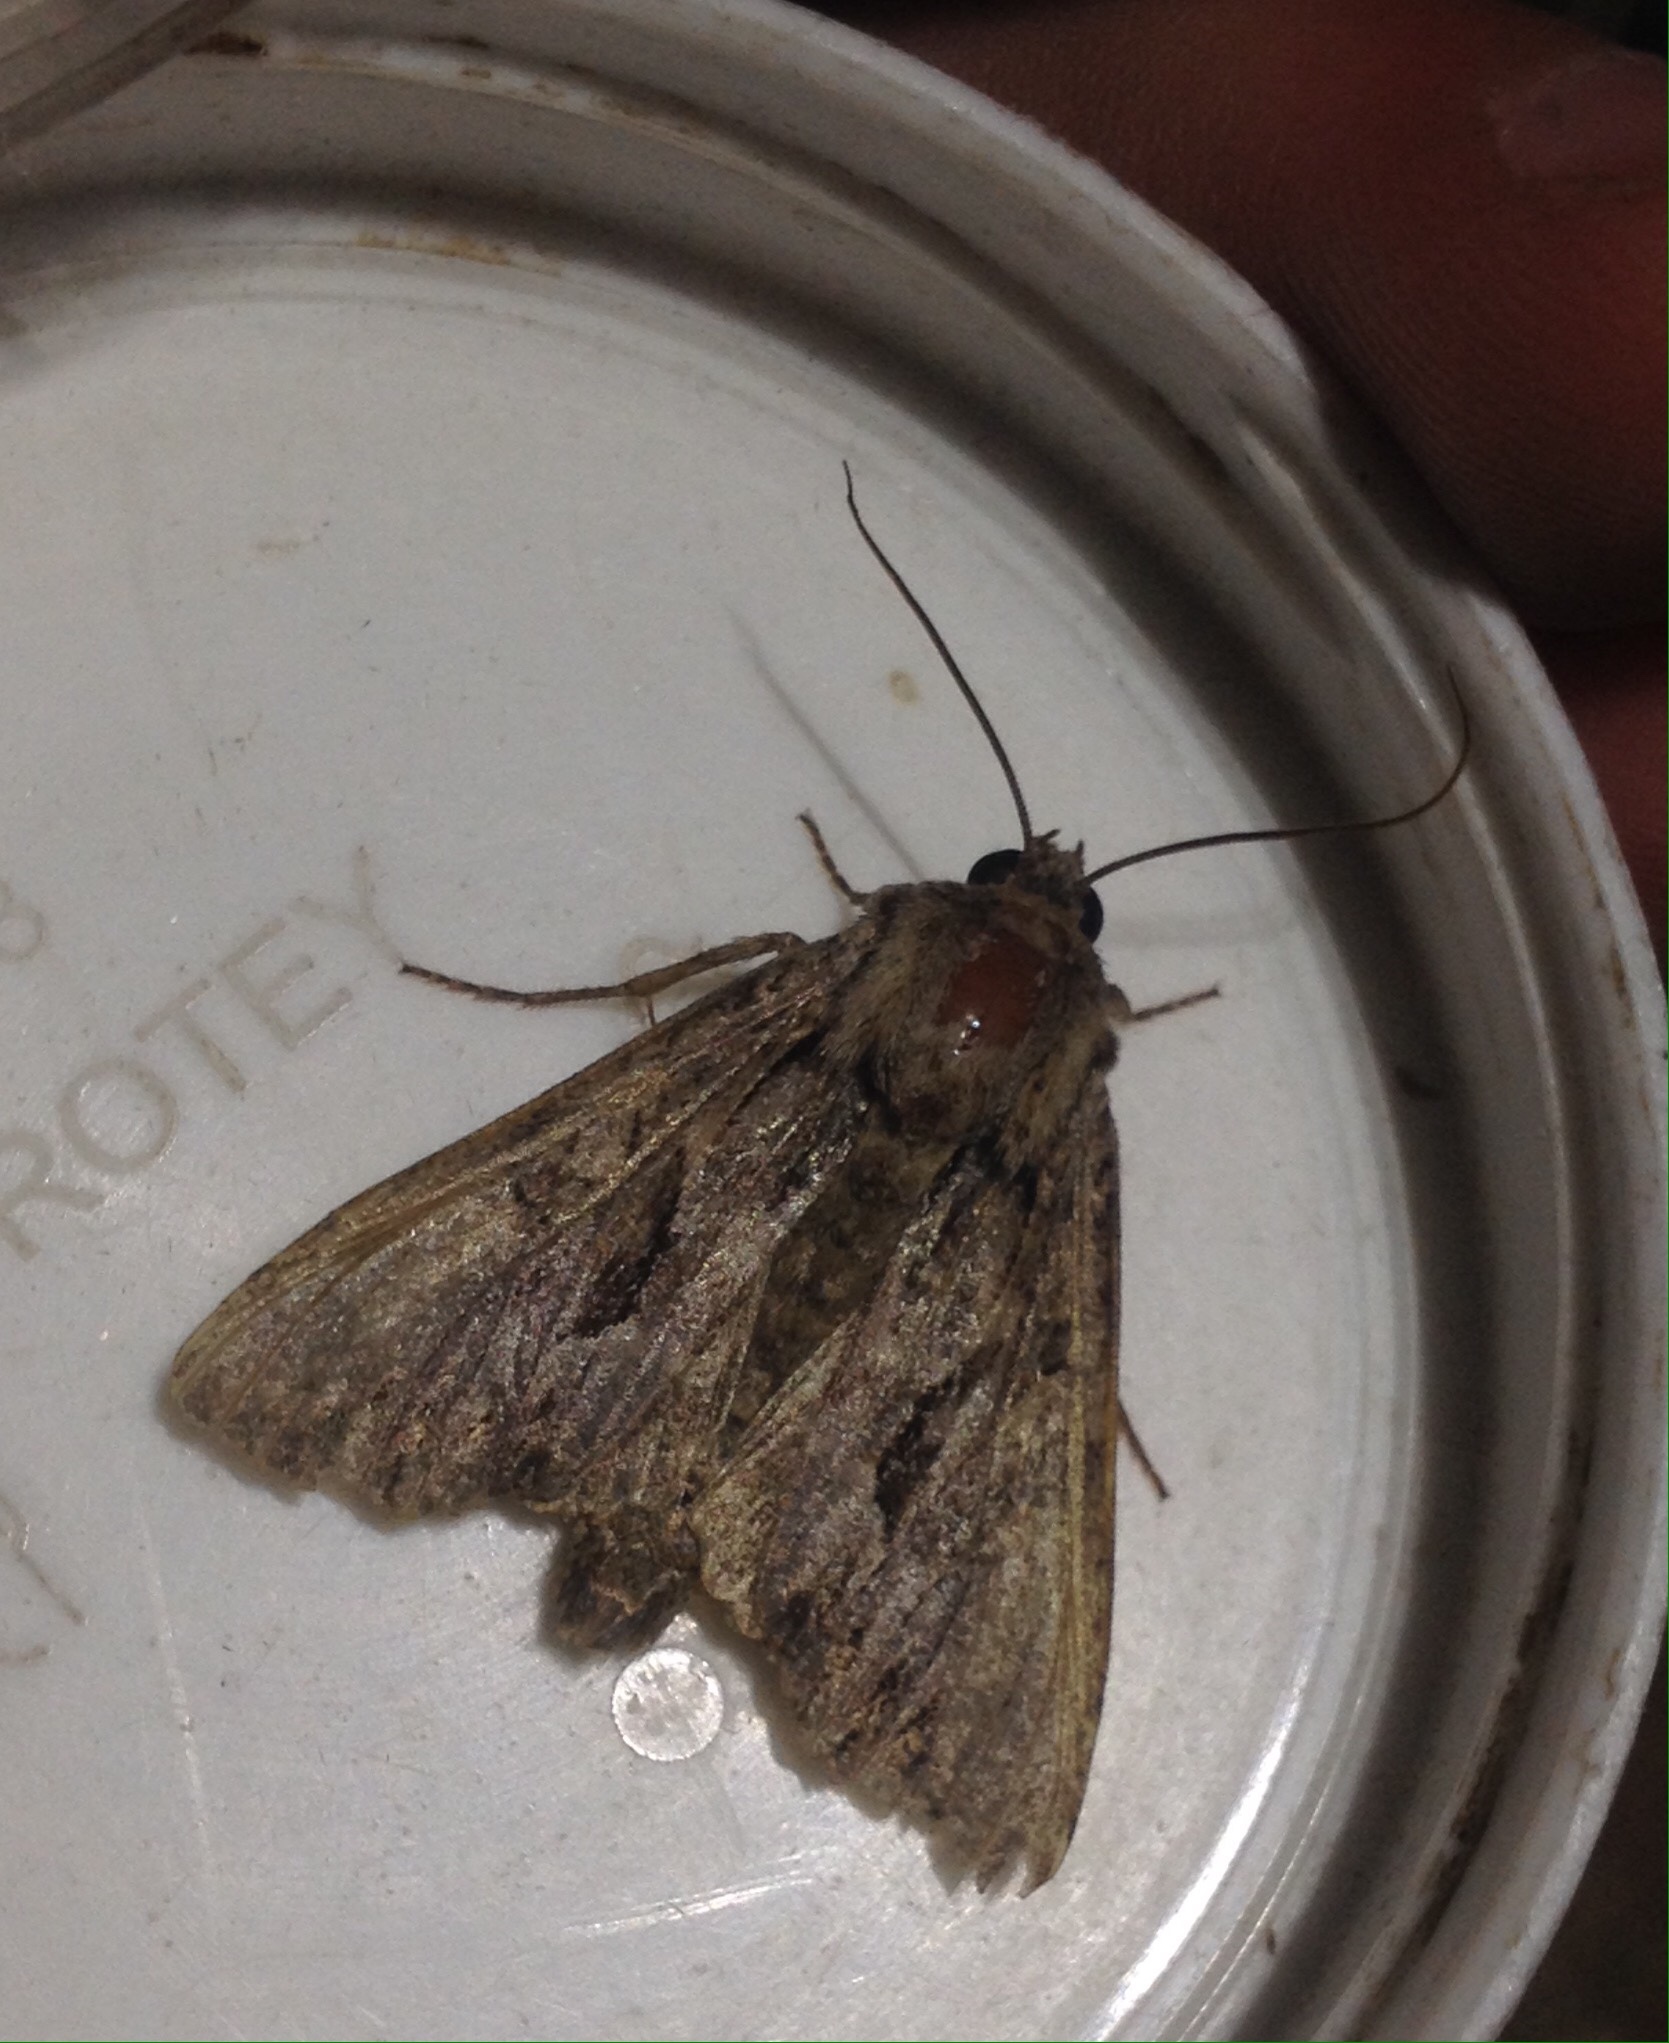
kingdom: Animalia
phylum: Arthropoda
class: Insecta
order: Lepidoptera
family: Noctuidae
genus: Apamea
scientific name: Apamea monoglypha
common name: Dark arches
